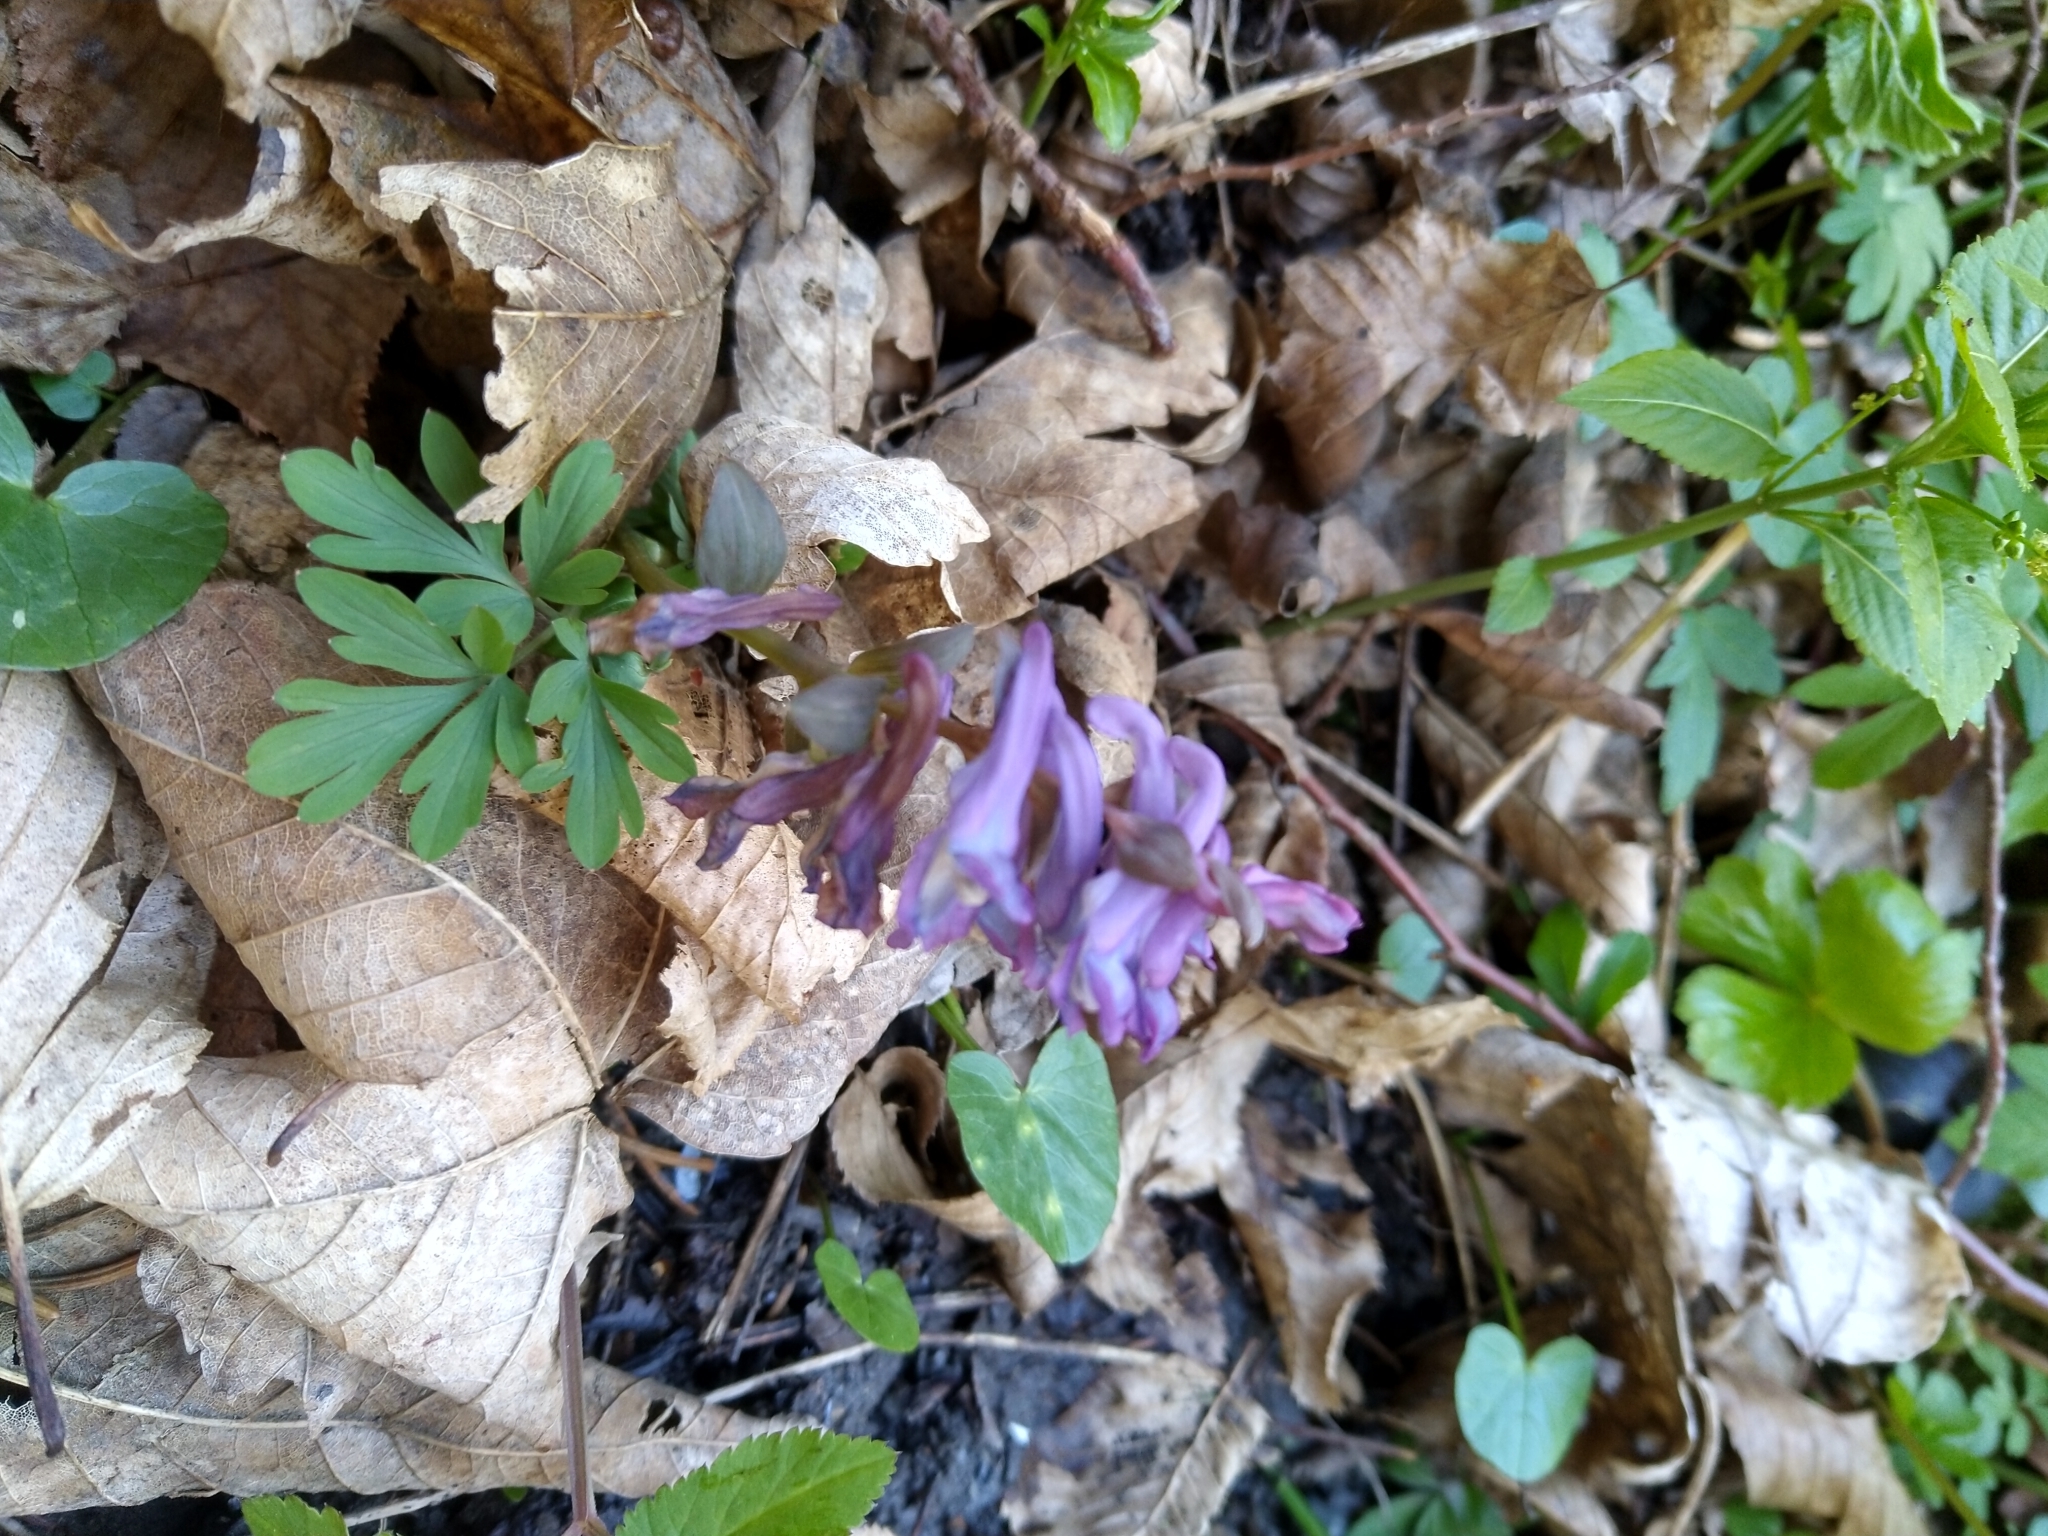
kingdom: Plantae
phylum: Tracheophyta
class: Magnoliopsida
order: Ranunculales
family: Papaveraceae
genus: Corydalis
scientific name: Corydalis cava
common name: Hollowroot
